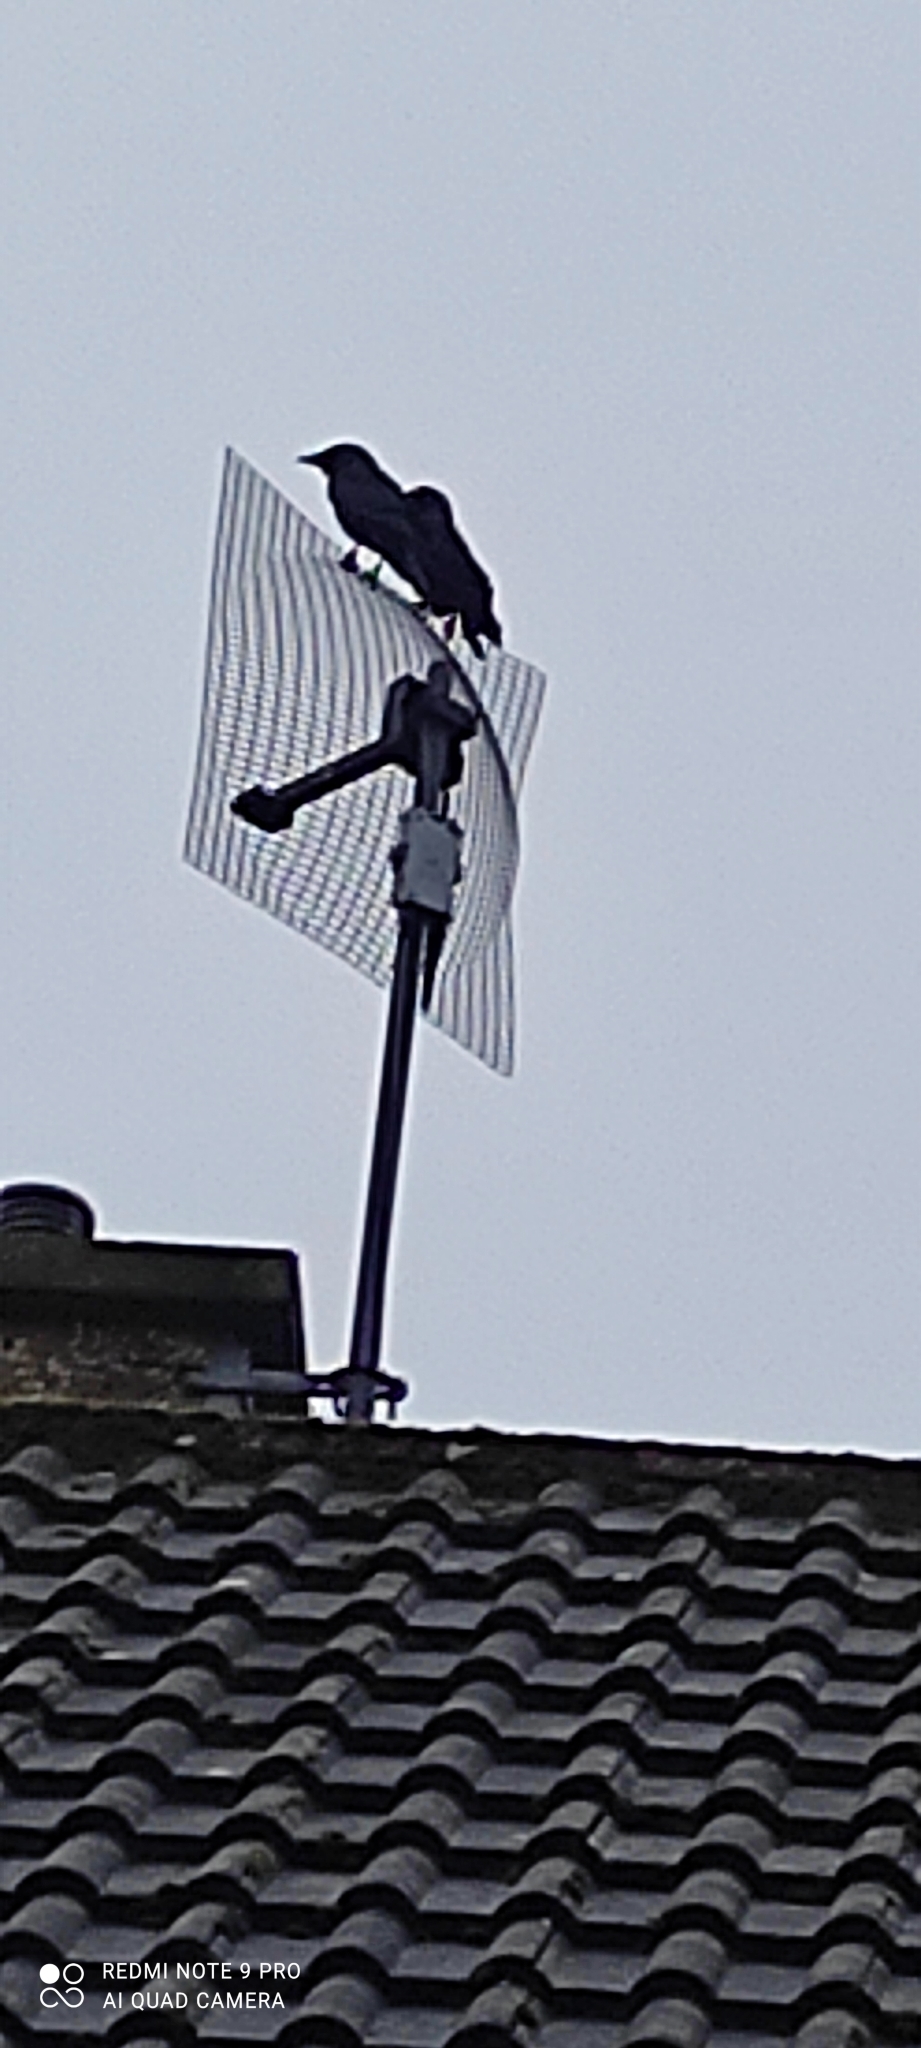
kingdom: Animalia
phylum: Chordata
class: Aves
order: Passeriformes
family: Corvidae
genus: Coloeus
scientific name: Coloeus monedula
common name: Western jackdaw
